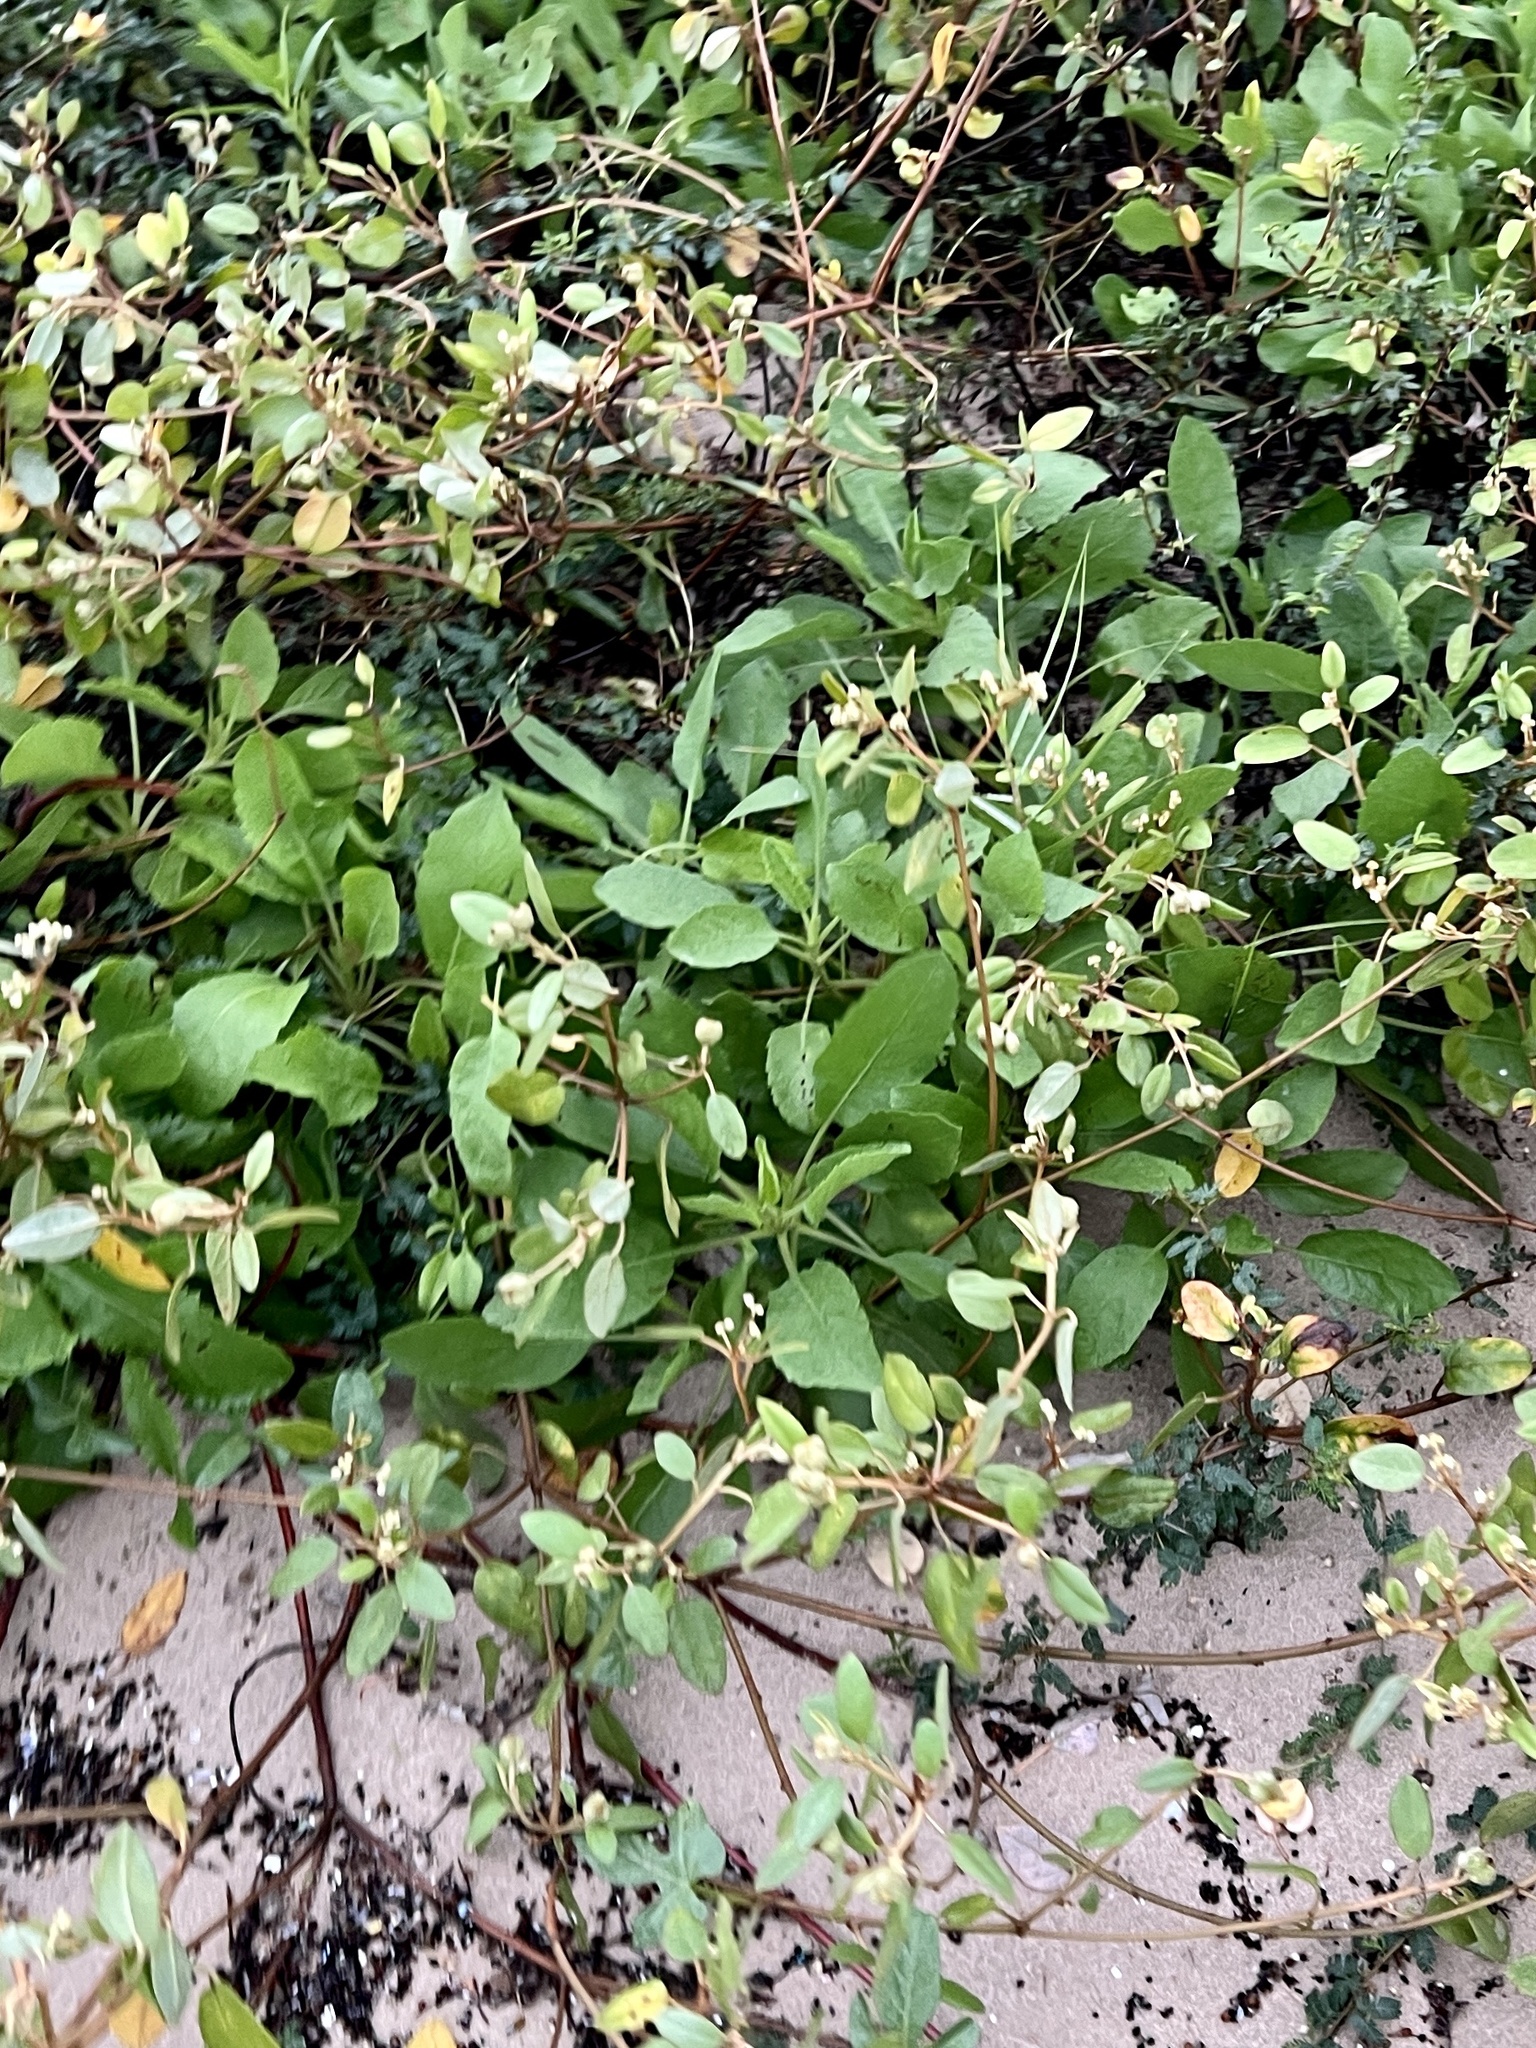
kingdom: Plantae
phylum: Tracheophyta
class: Magnoliopsida
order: Malpighiales
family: Euphorbiaceae
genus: Croton
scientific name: Croton punctatus
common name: Beach-tea
